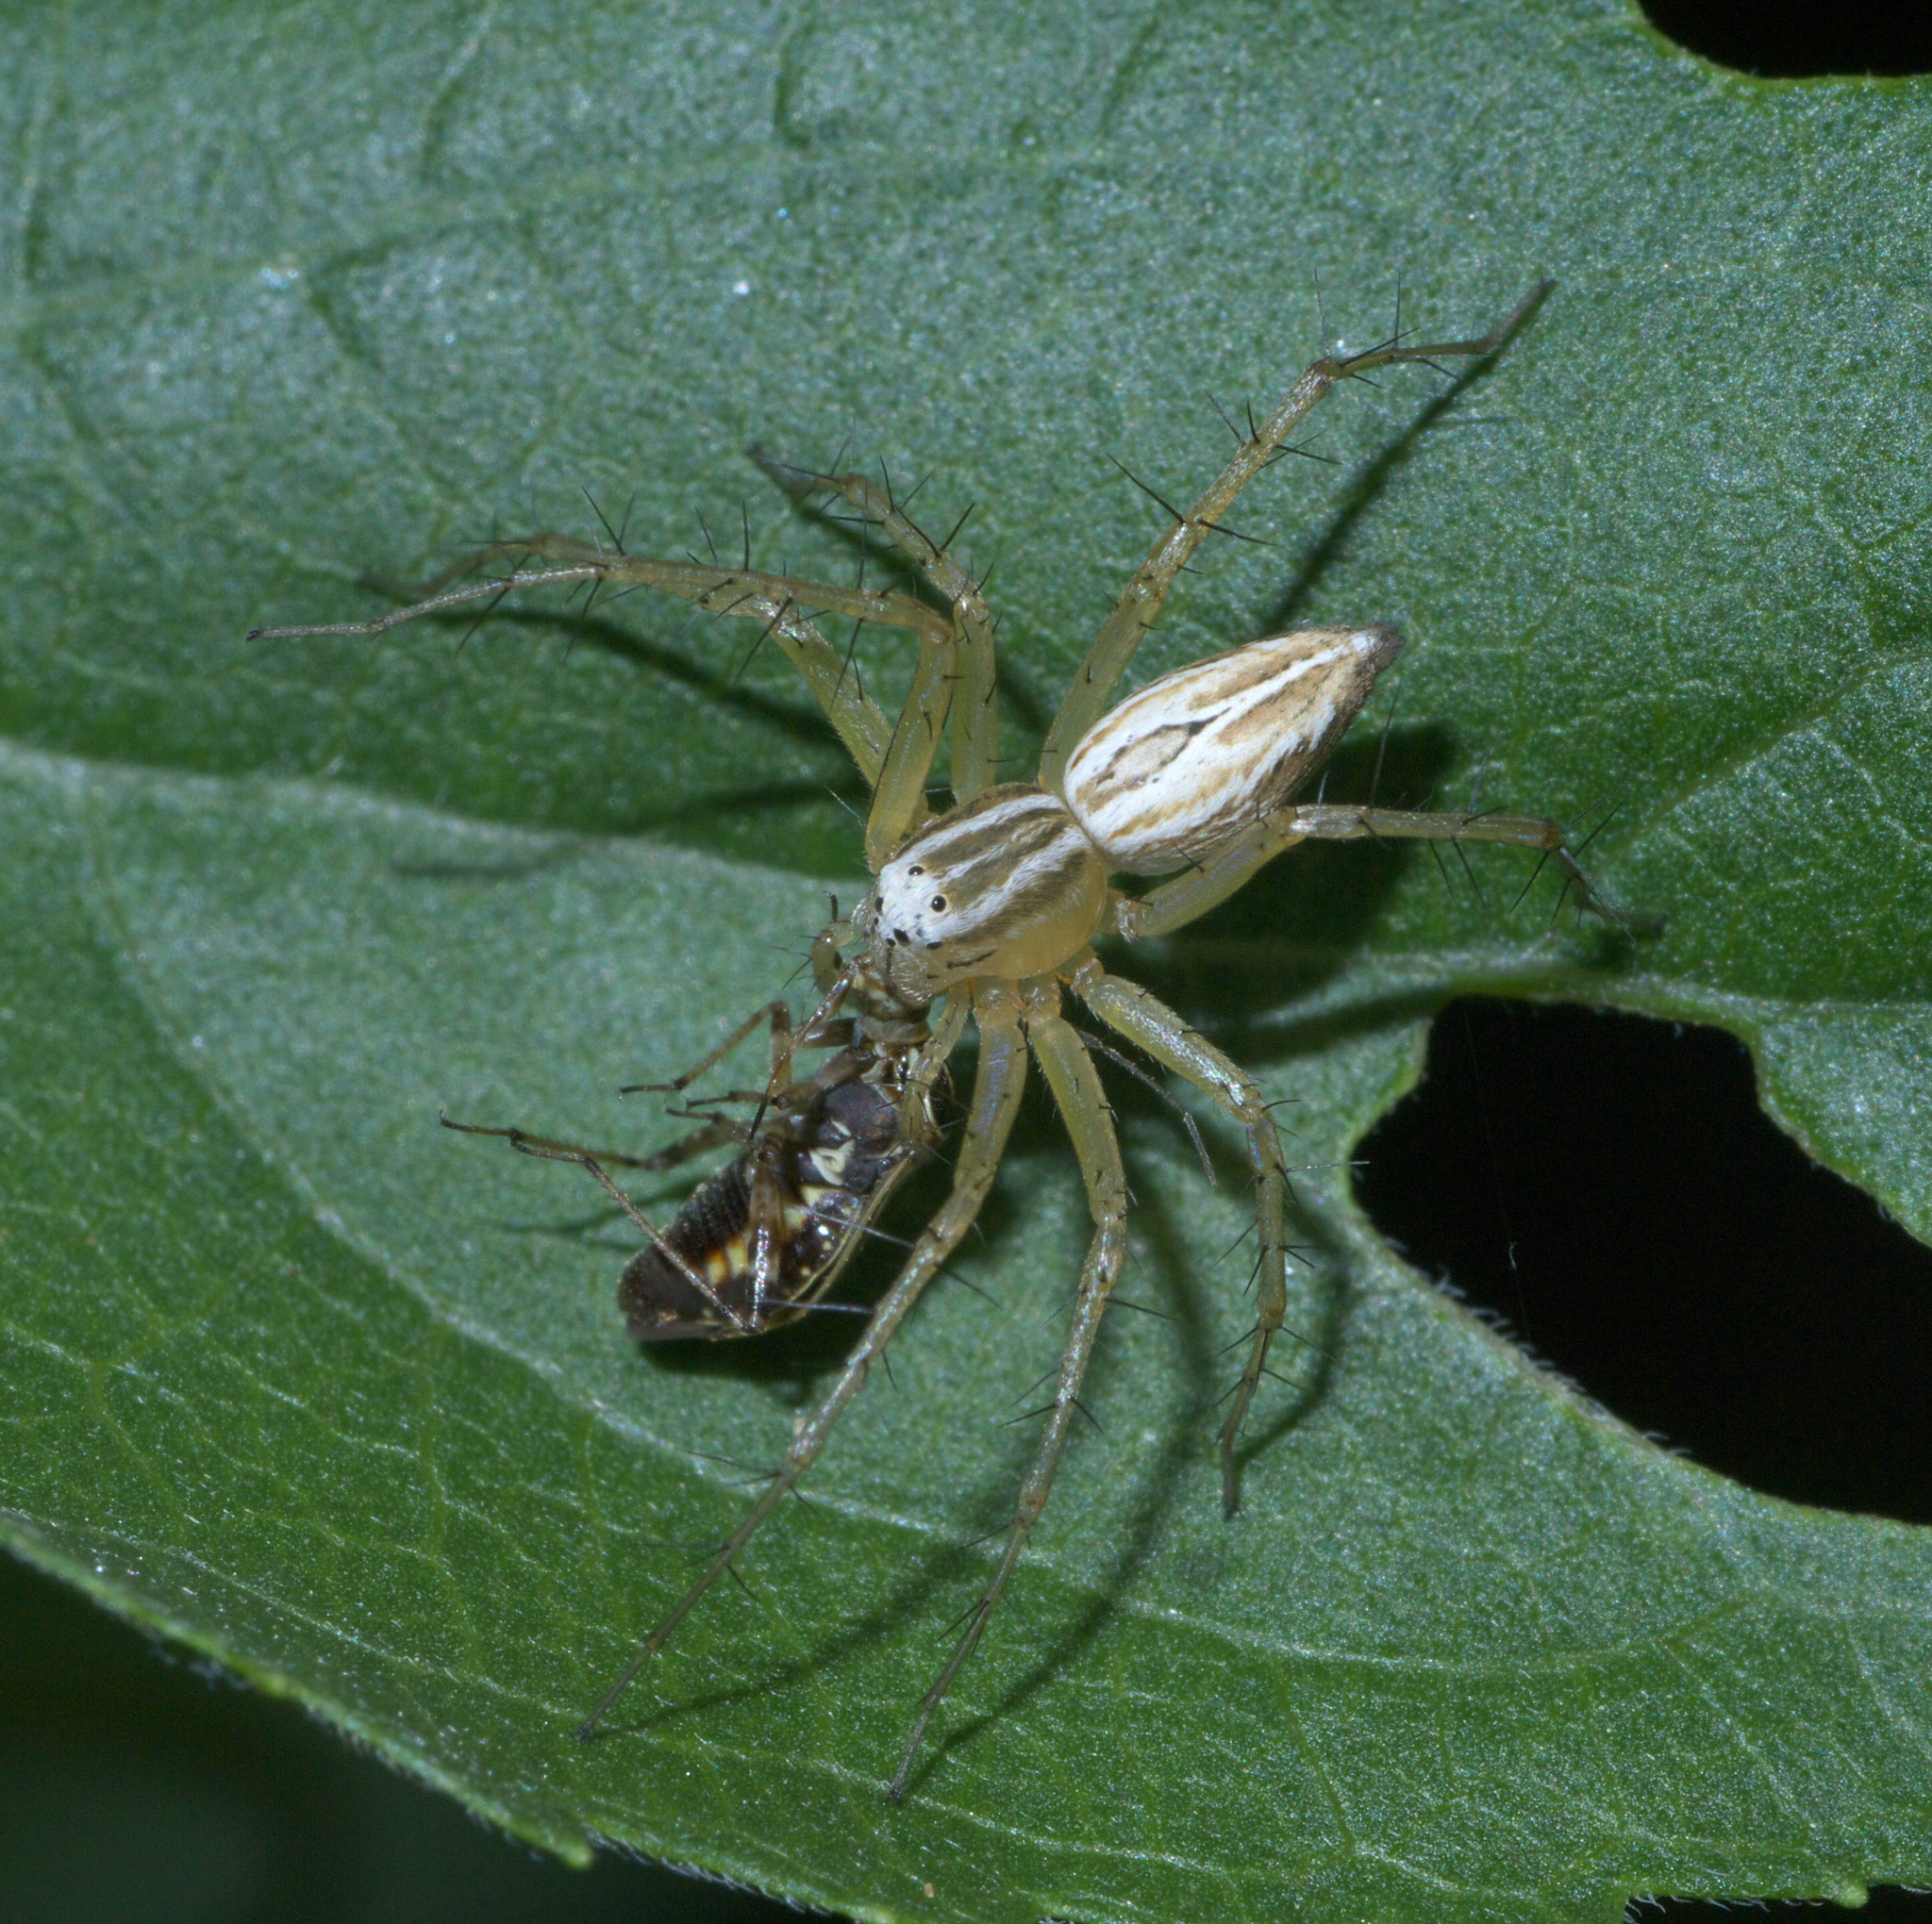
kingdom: Animalia
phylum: Arthropoda
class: Arachnida
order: Araneae
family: Oxyopidae
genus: Oxyopes
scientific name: Oxyopes salticus
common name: Lynx spiders
